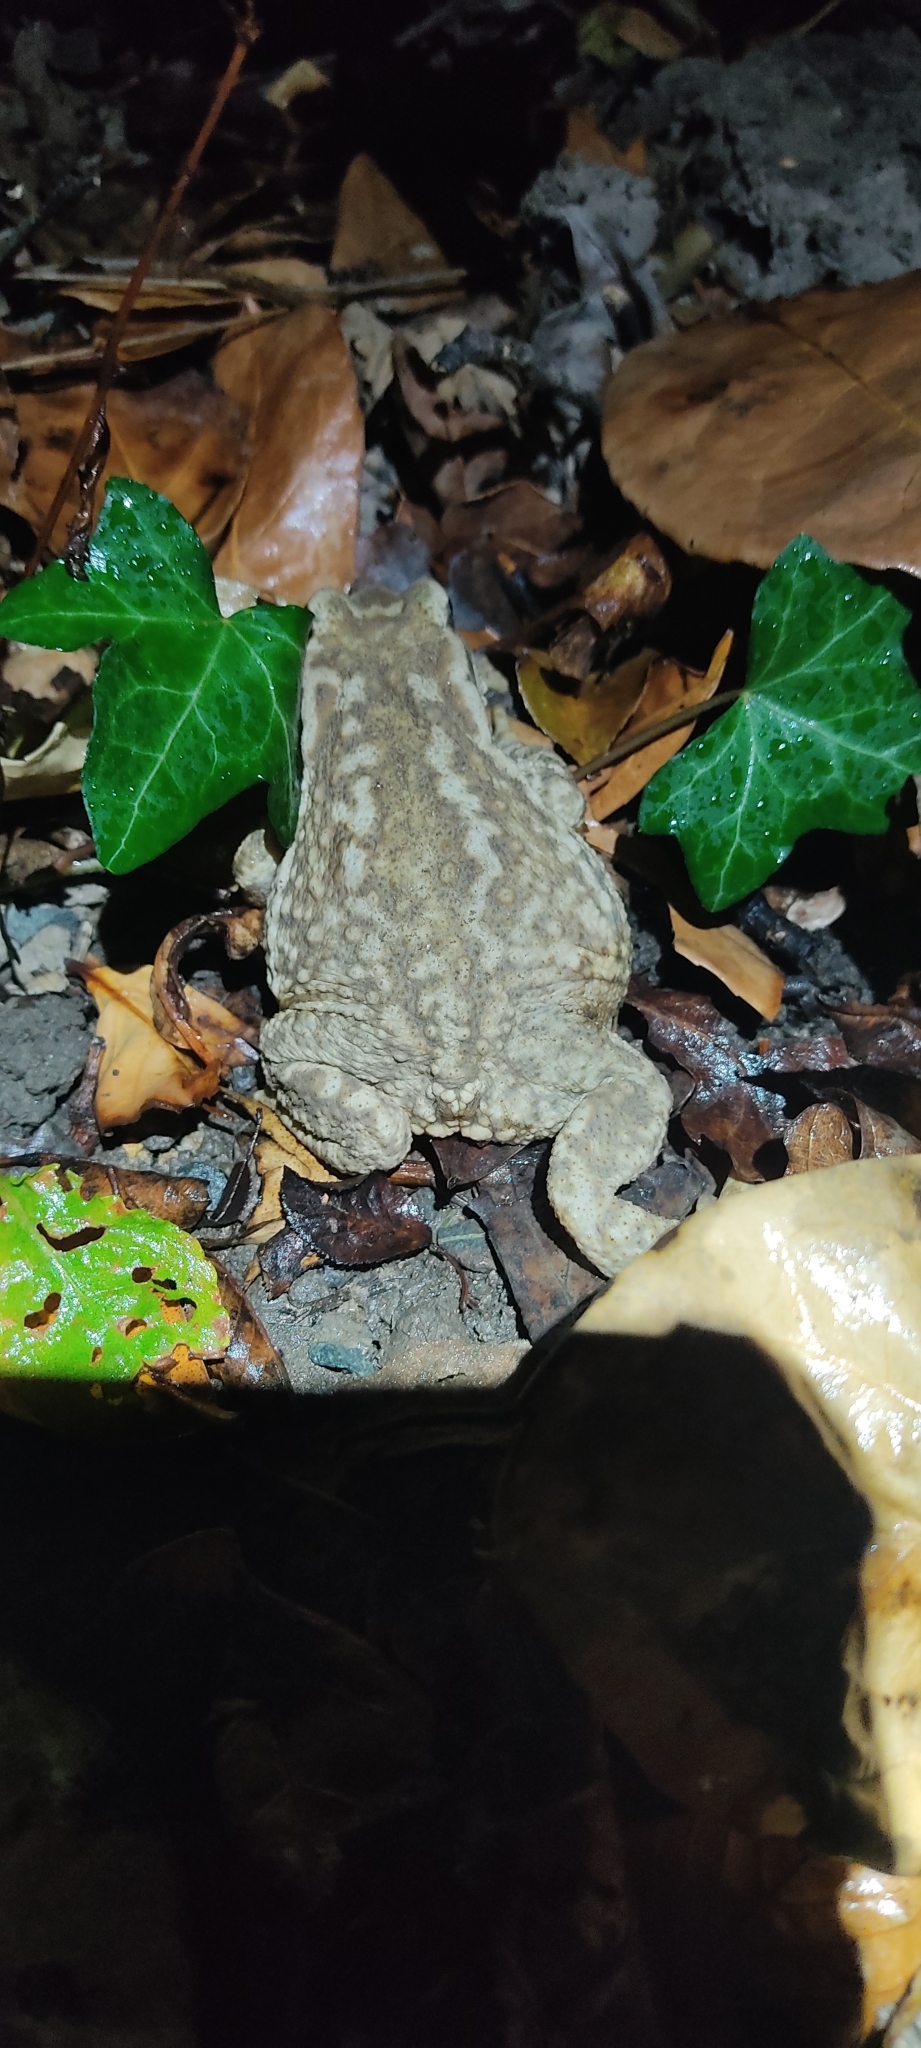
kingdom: Animalia
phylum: Chordata
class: Amphibia
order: Anura
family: Bufonidae
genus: Bufo
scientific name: Bufo spinosus
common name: Western common toad
